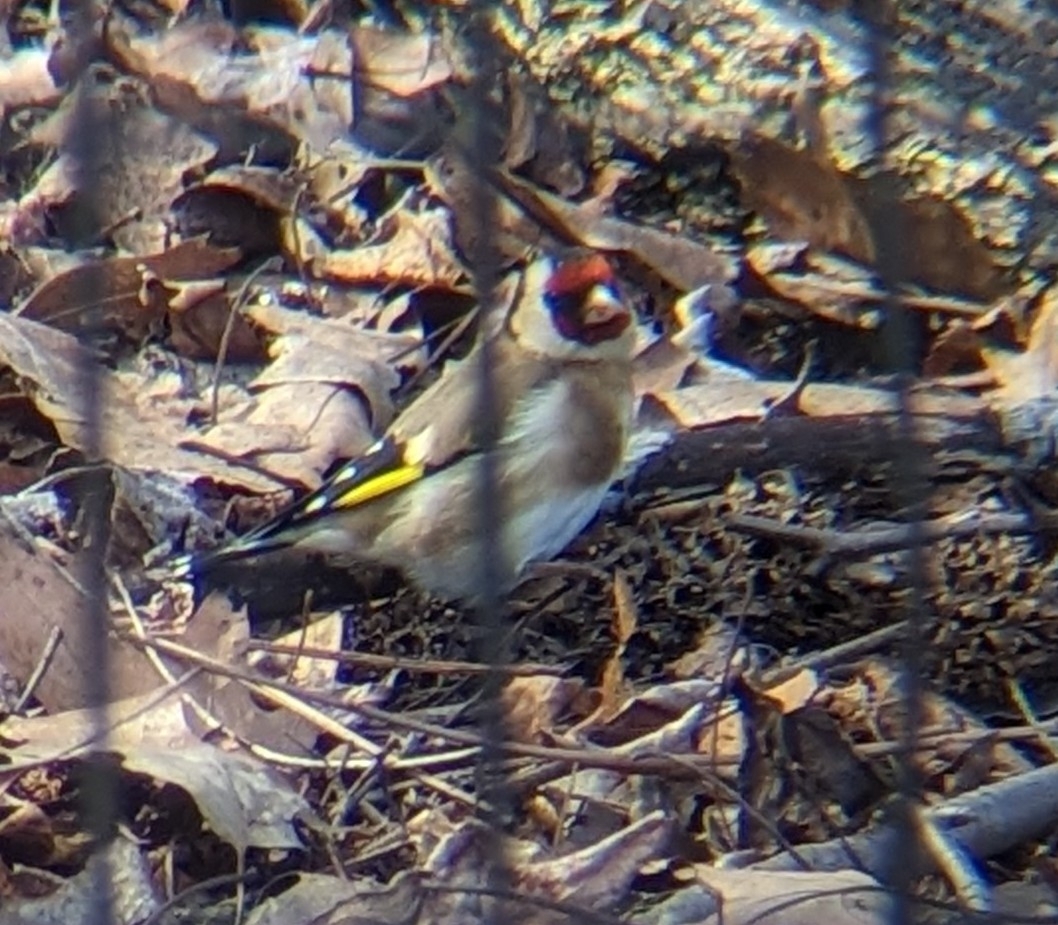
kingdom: Animalia
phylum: Chordata
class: Aves
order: Passeriformes
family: Fringillidae
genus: Carduelis
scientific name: Carduelis carduelis
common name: European goldfinch
